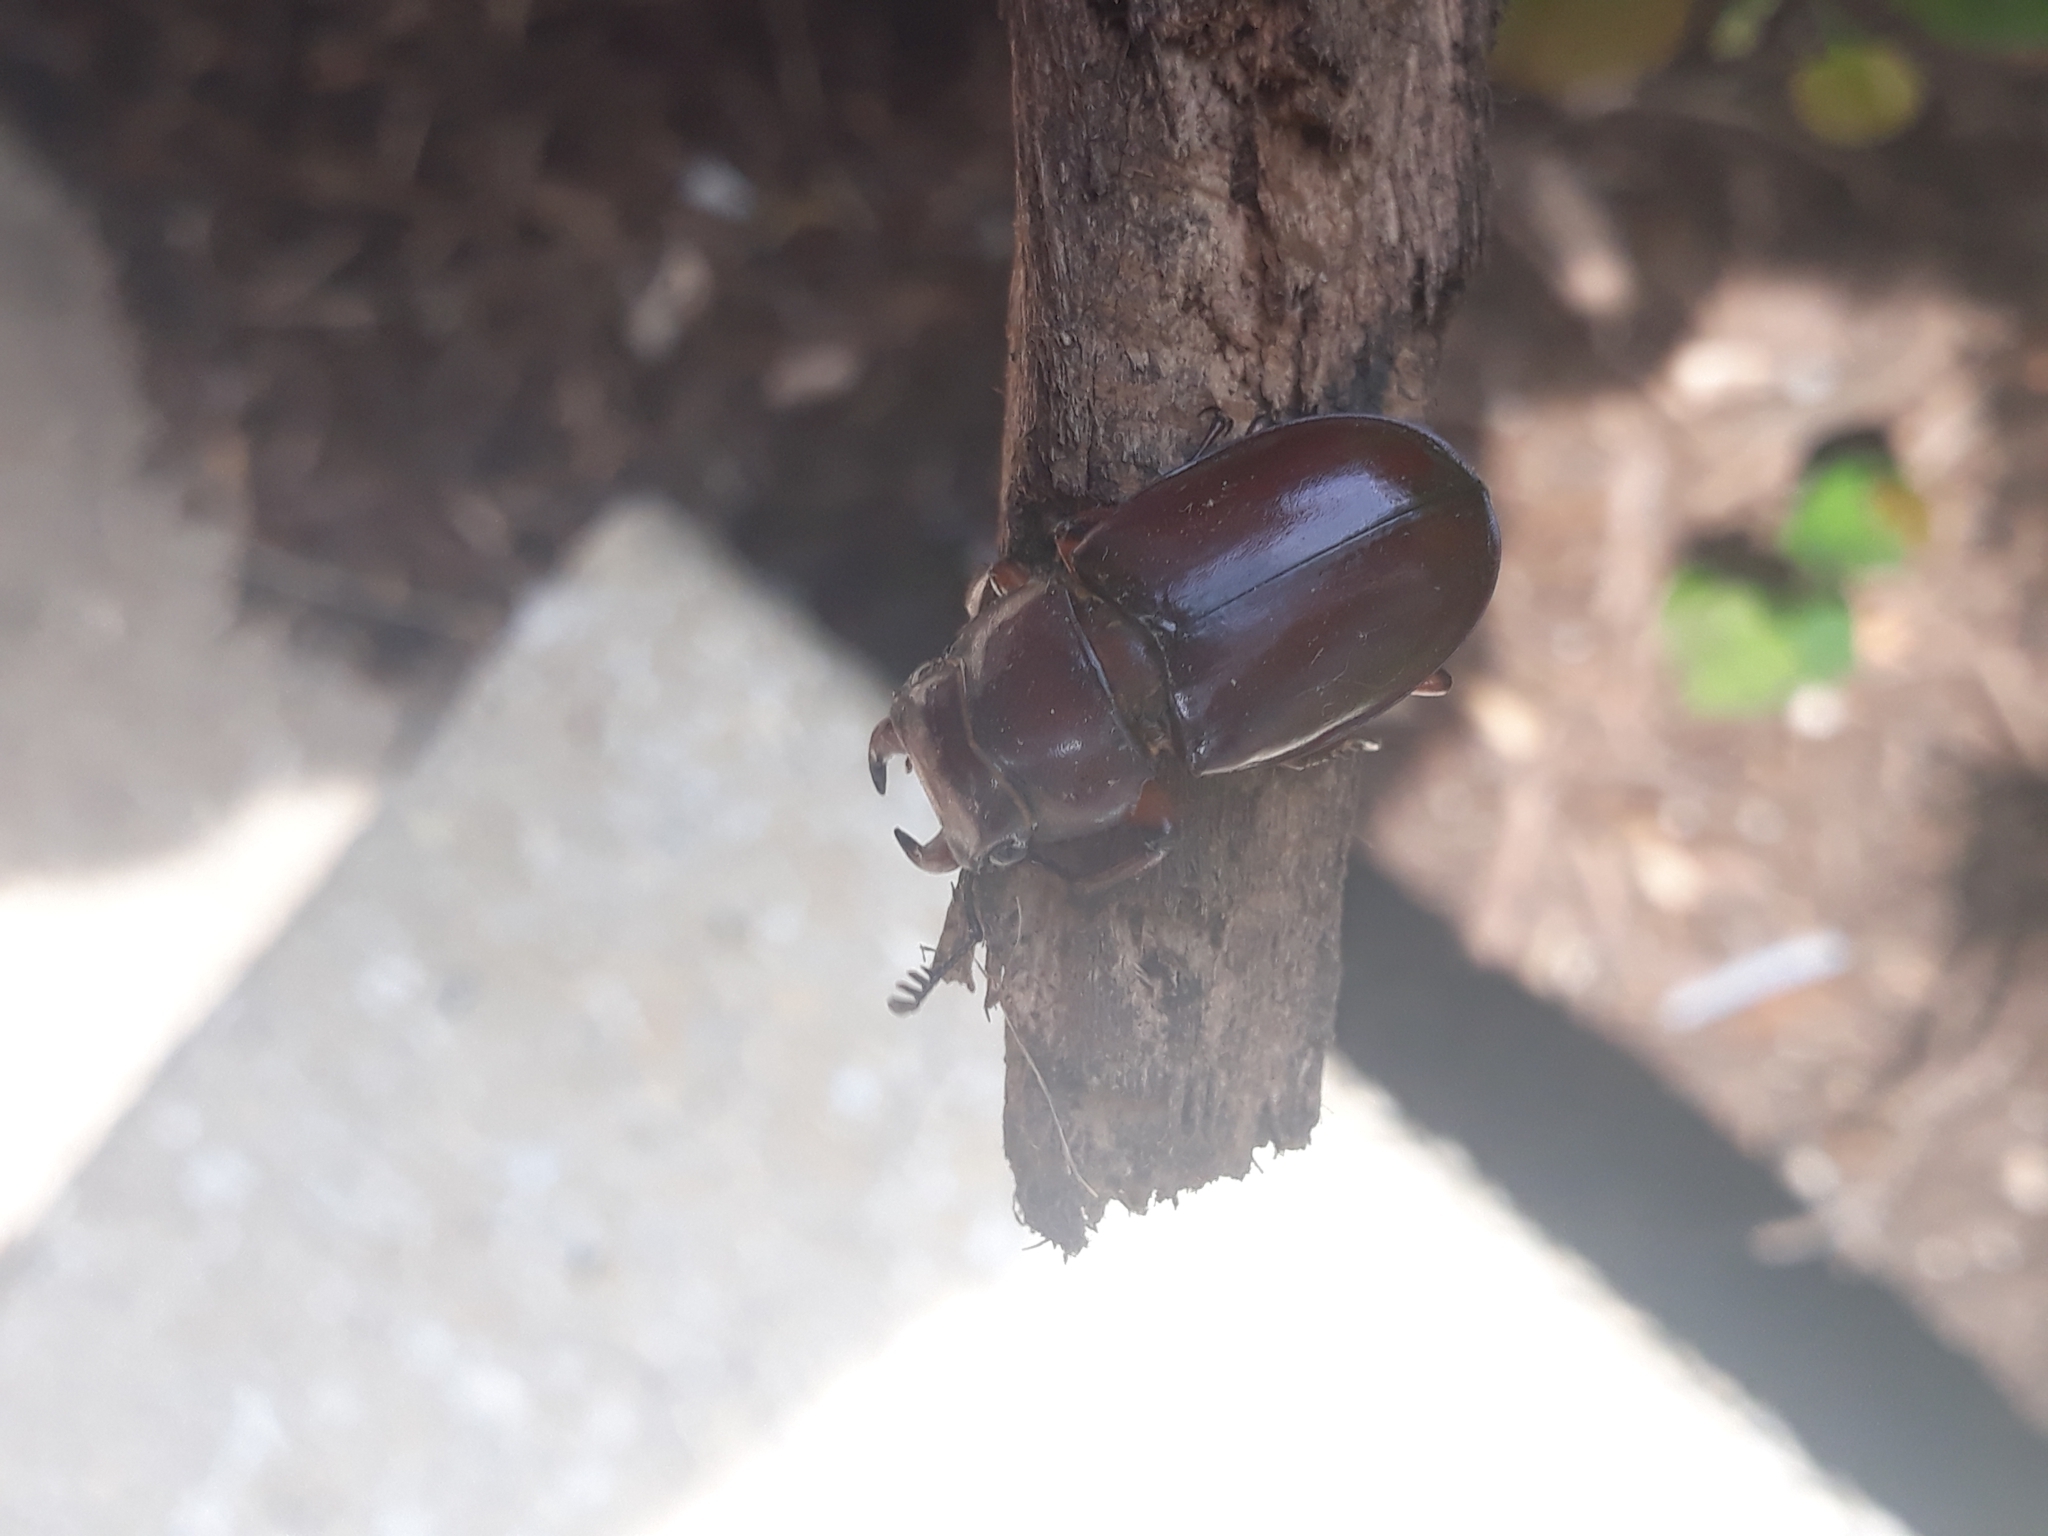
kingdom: Animalia
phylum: Arthropoda
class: Insecta
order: Coleoptera
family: Lucanidae
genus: Lucanus
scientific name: Lucanus capreolus
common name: Stag beetle
